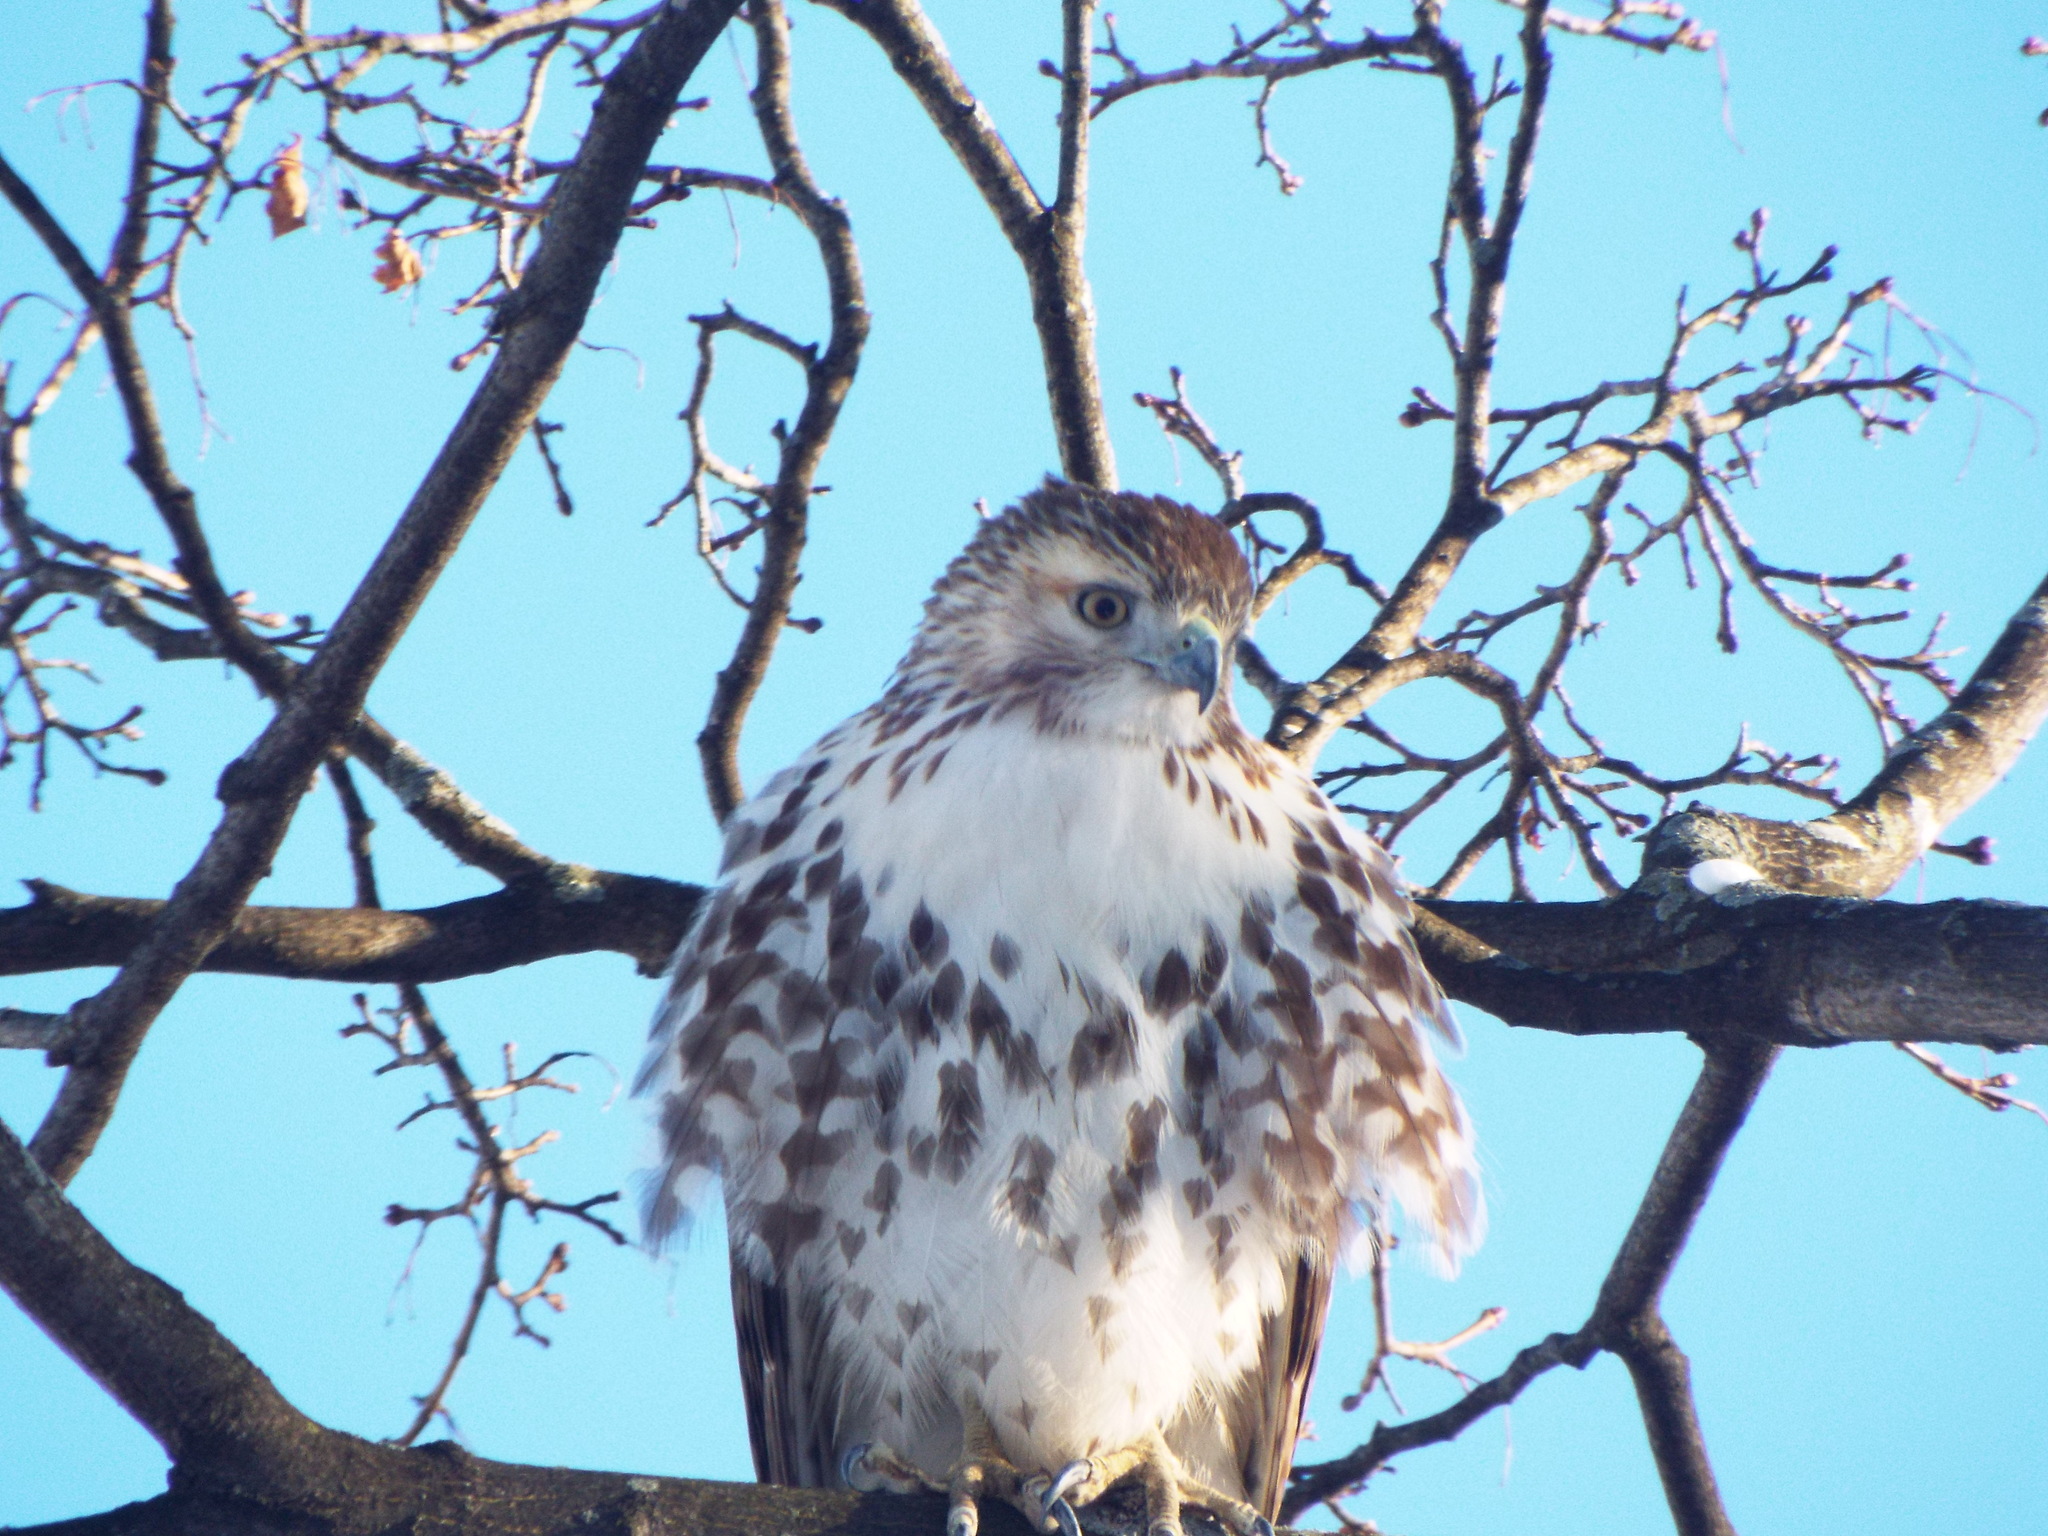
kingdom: Animalia
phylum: Chordata
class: Aves
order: Accipitriformes
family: Accipitridae
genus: Buteo
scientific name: Buteo jamaicensis
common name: Red-tailed hawk
